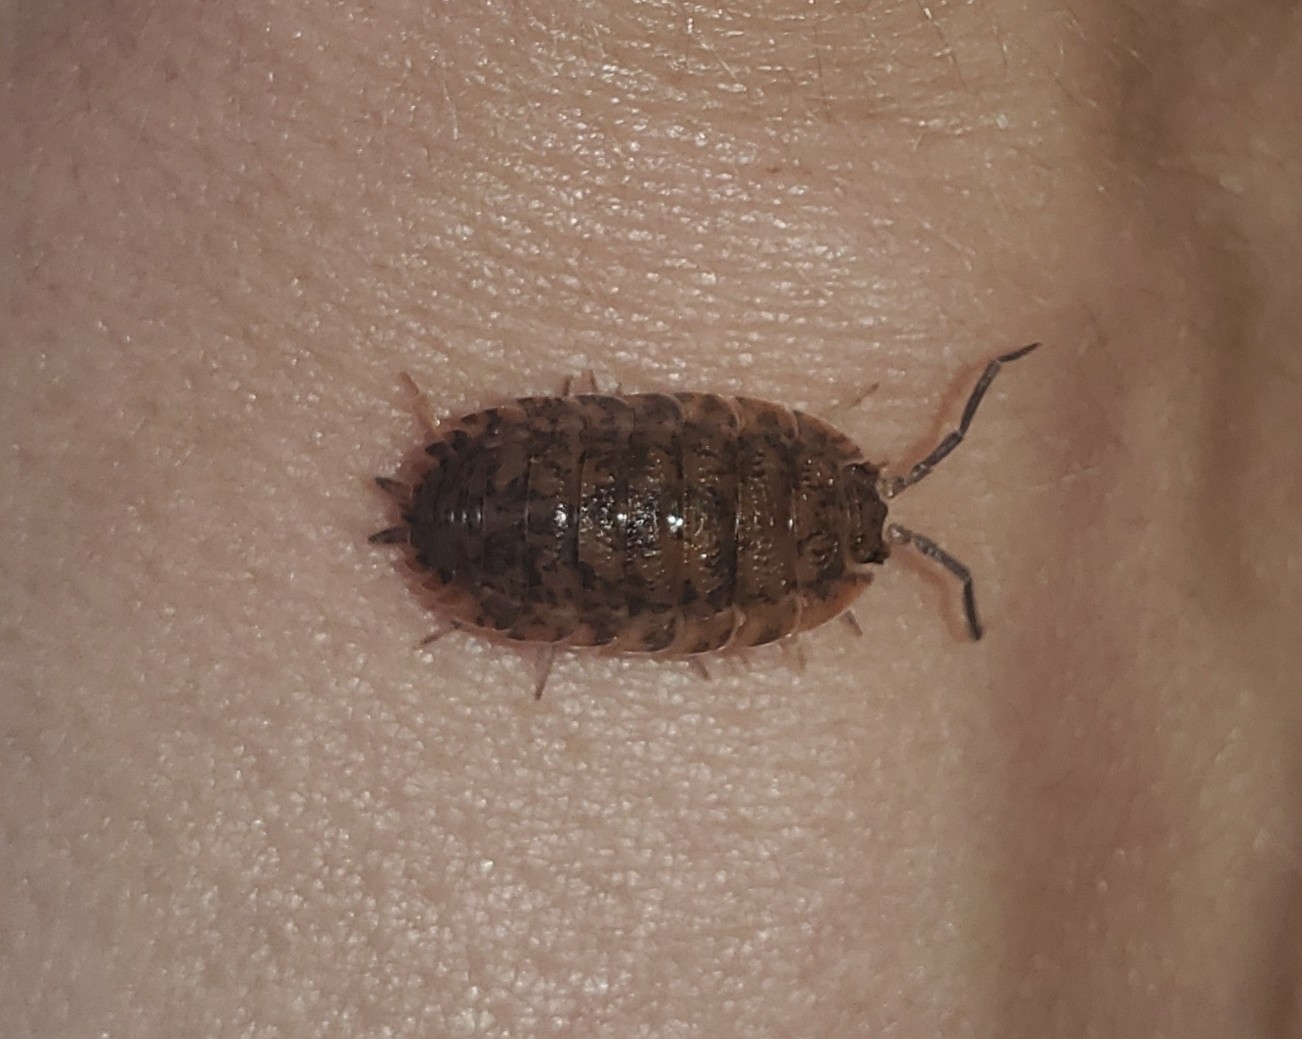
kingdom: Animalia
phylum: Arthropoda
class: Malacostraca
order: Isopoda
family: Porcellionidae
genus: Porcellio
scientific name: Porcellio scaber
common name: Common rough woodlouse
